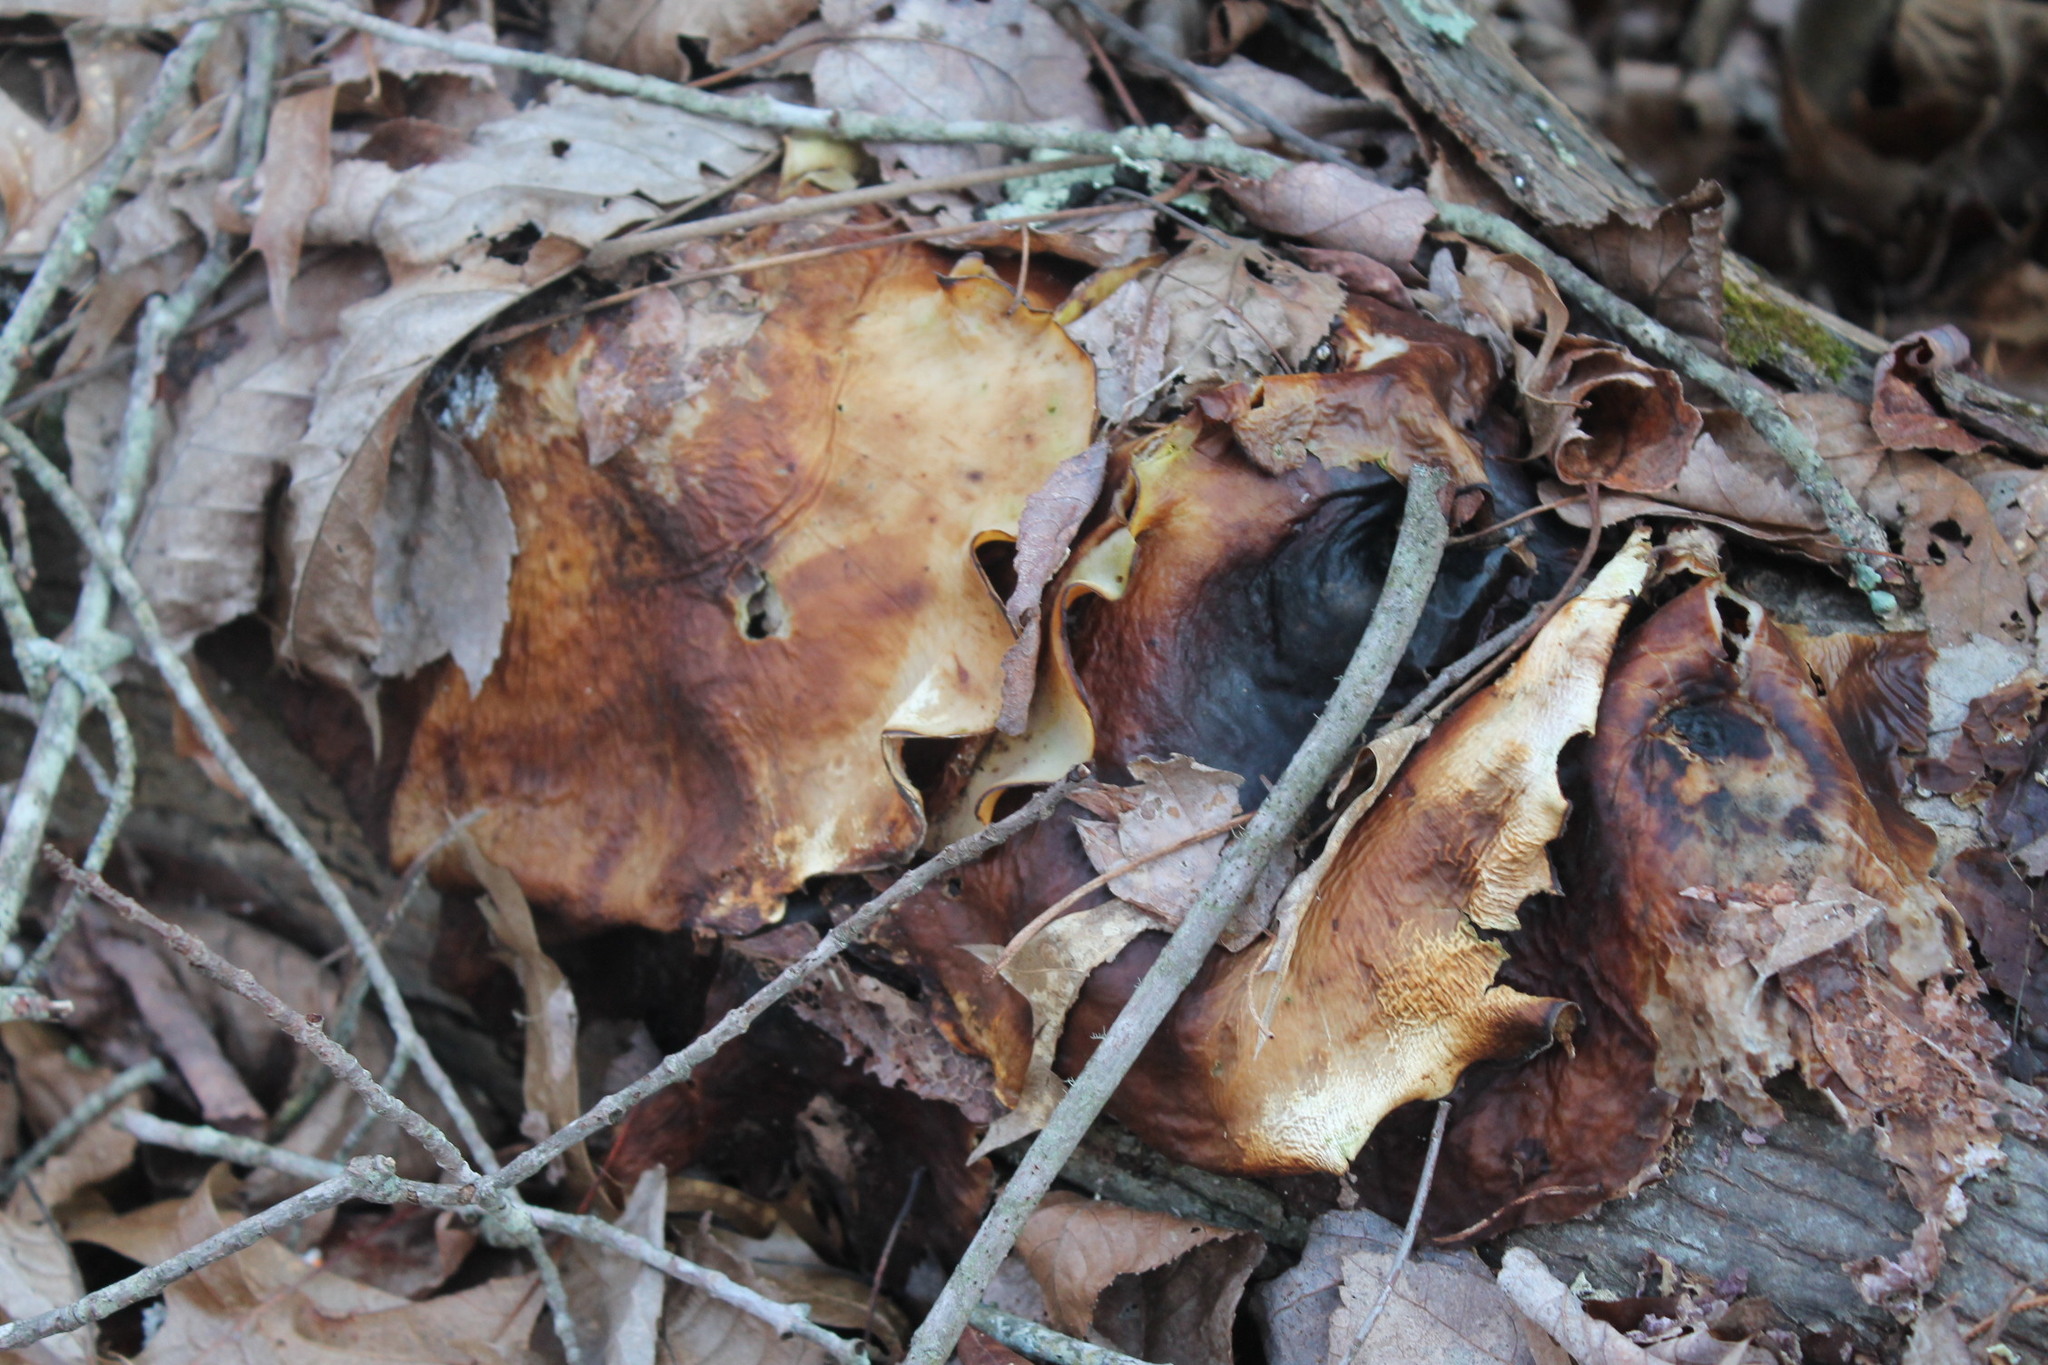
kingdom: Fungi
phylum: Basidiomycota
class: Agaricomycetes
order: Polyporales
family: Polyporaceae
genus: Picipes
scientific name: Picipes badius
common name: Bay polypore
